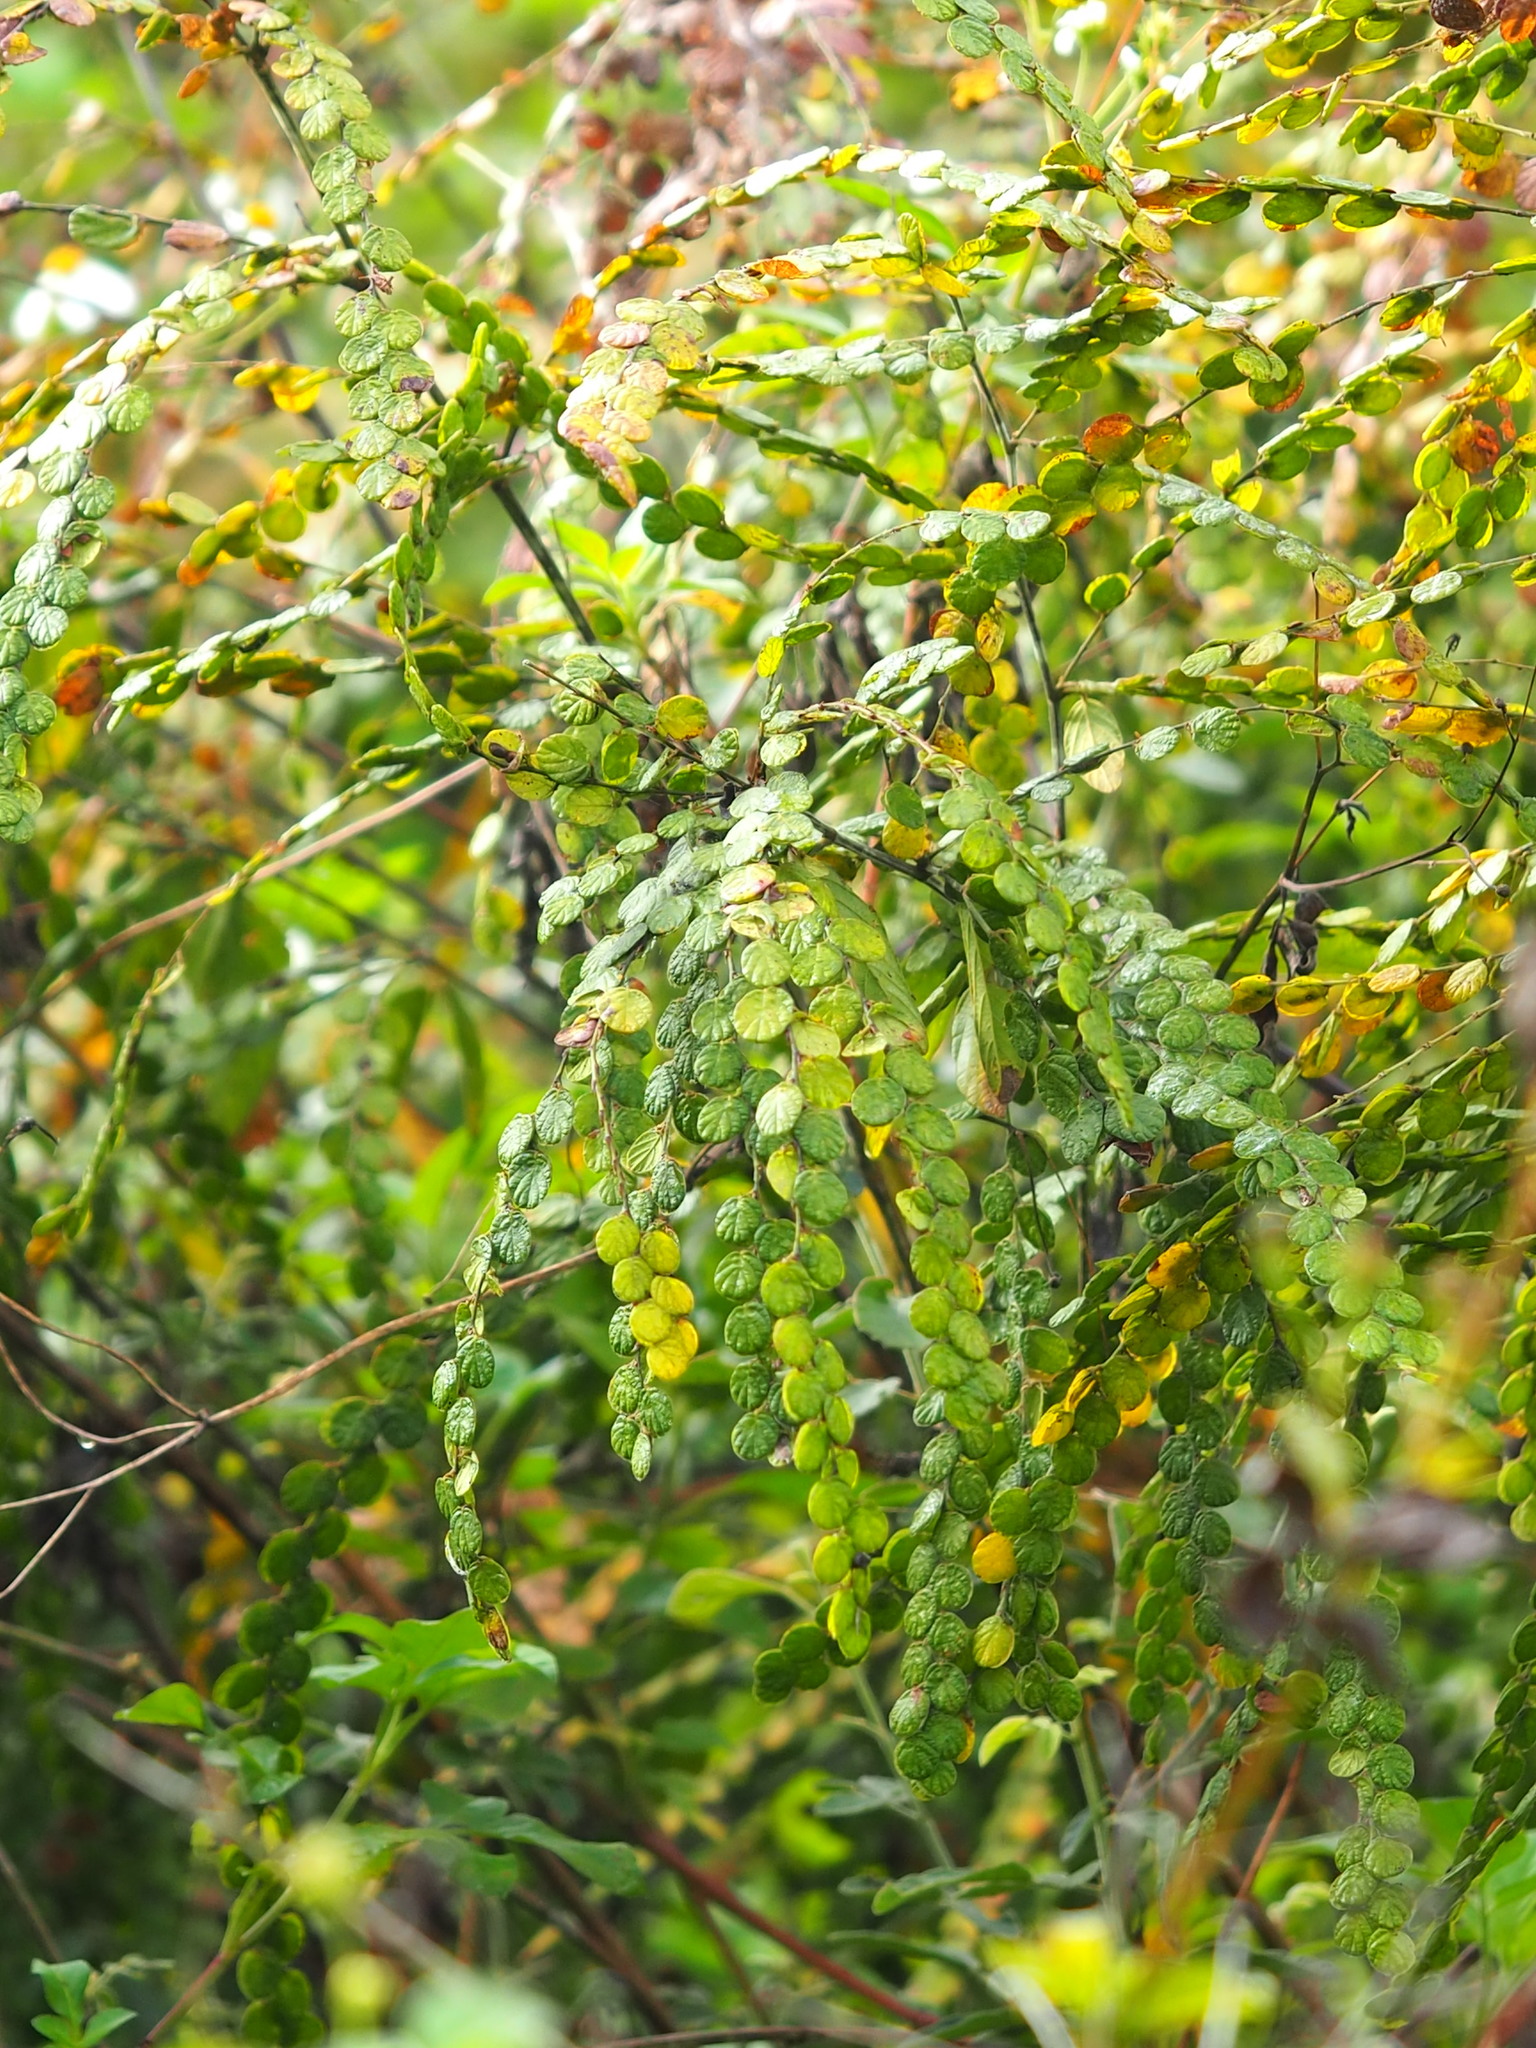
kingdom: Plantae
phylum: Tracheophyta
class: Magnoliopsida
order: Fabales
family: Fabaceae
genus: Phyllodium
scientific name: Phyllodium pulchellum
